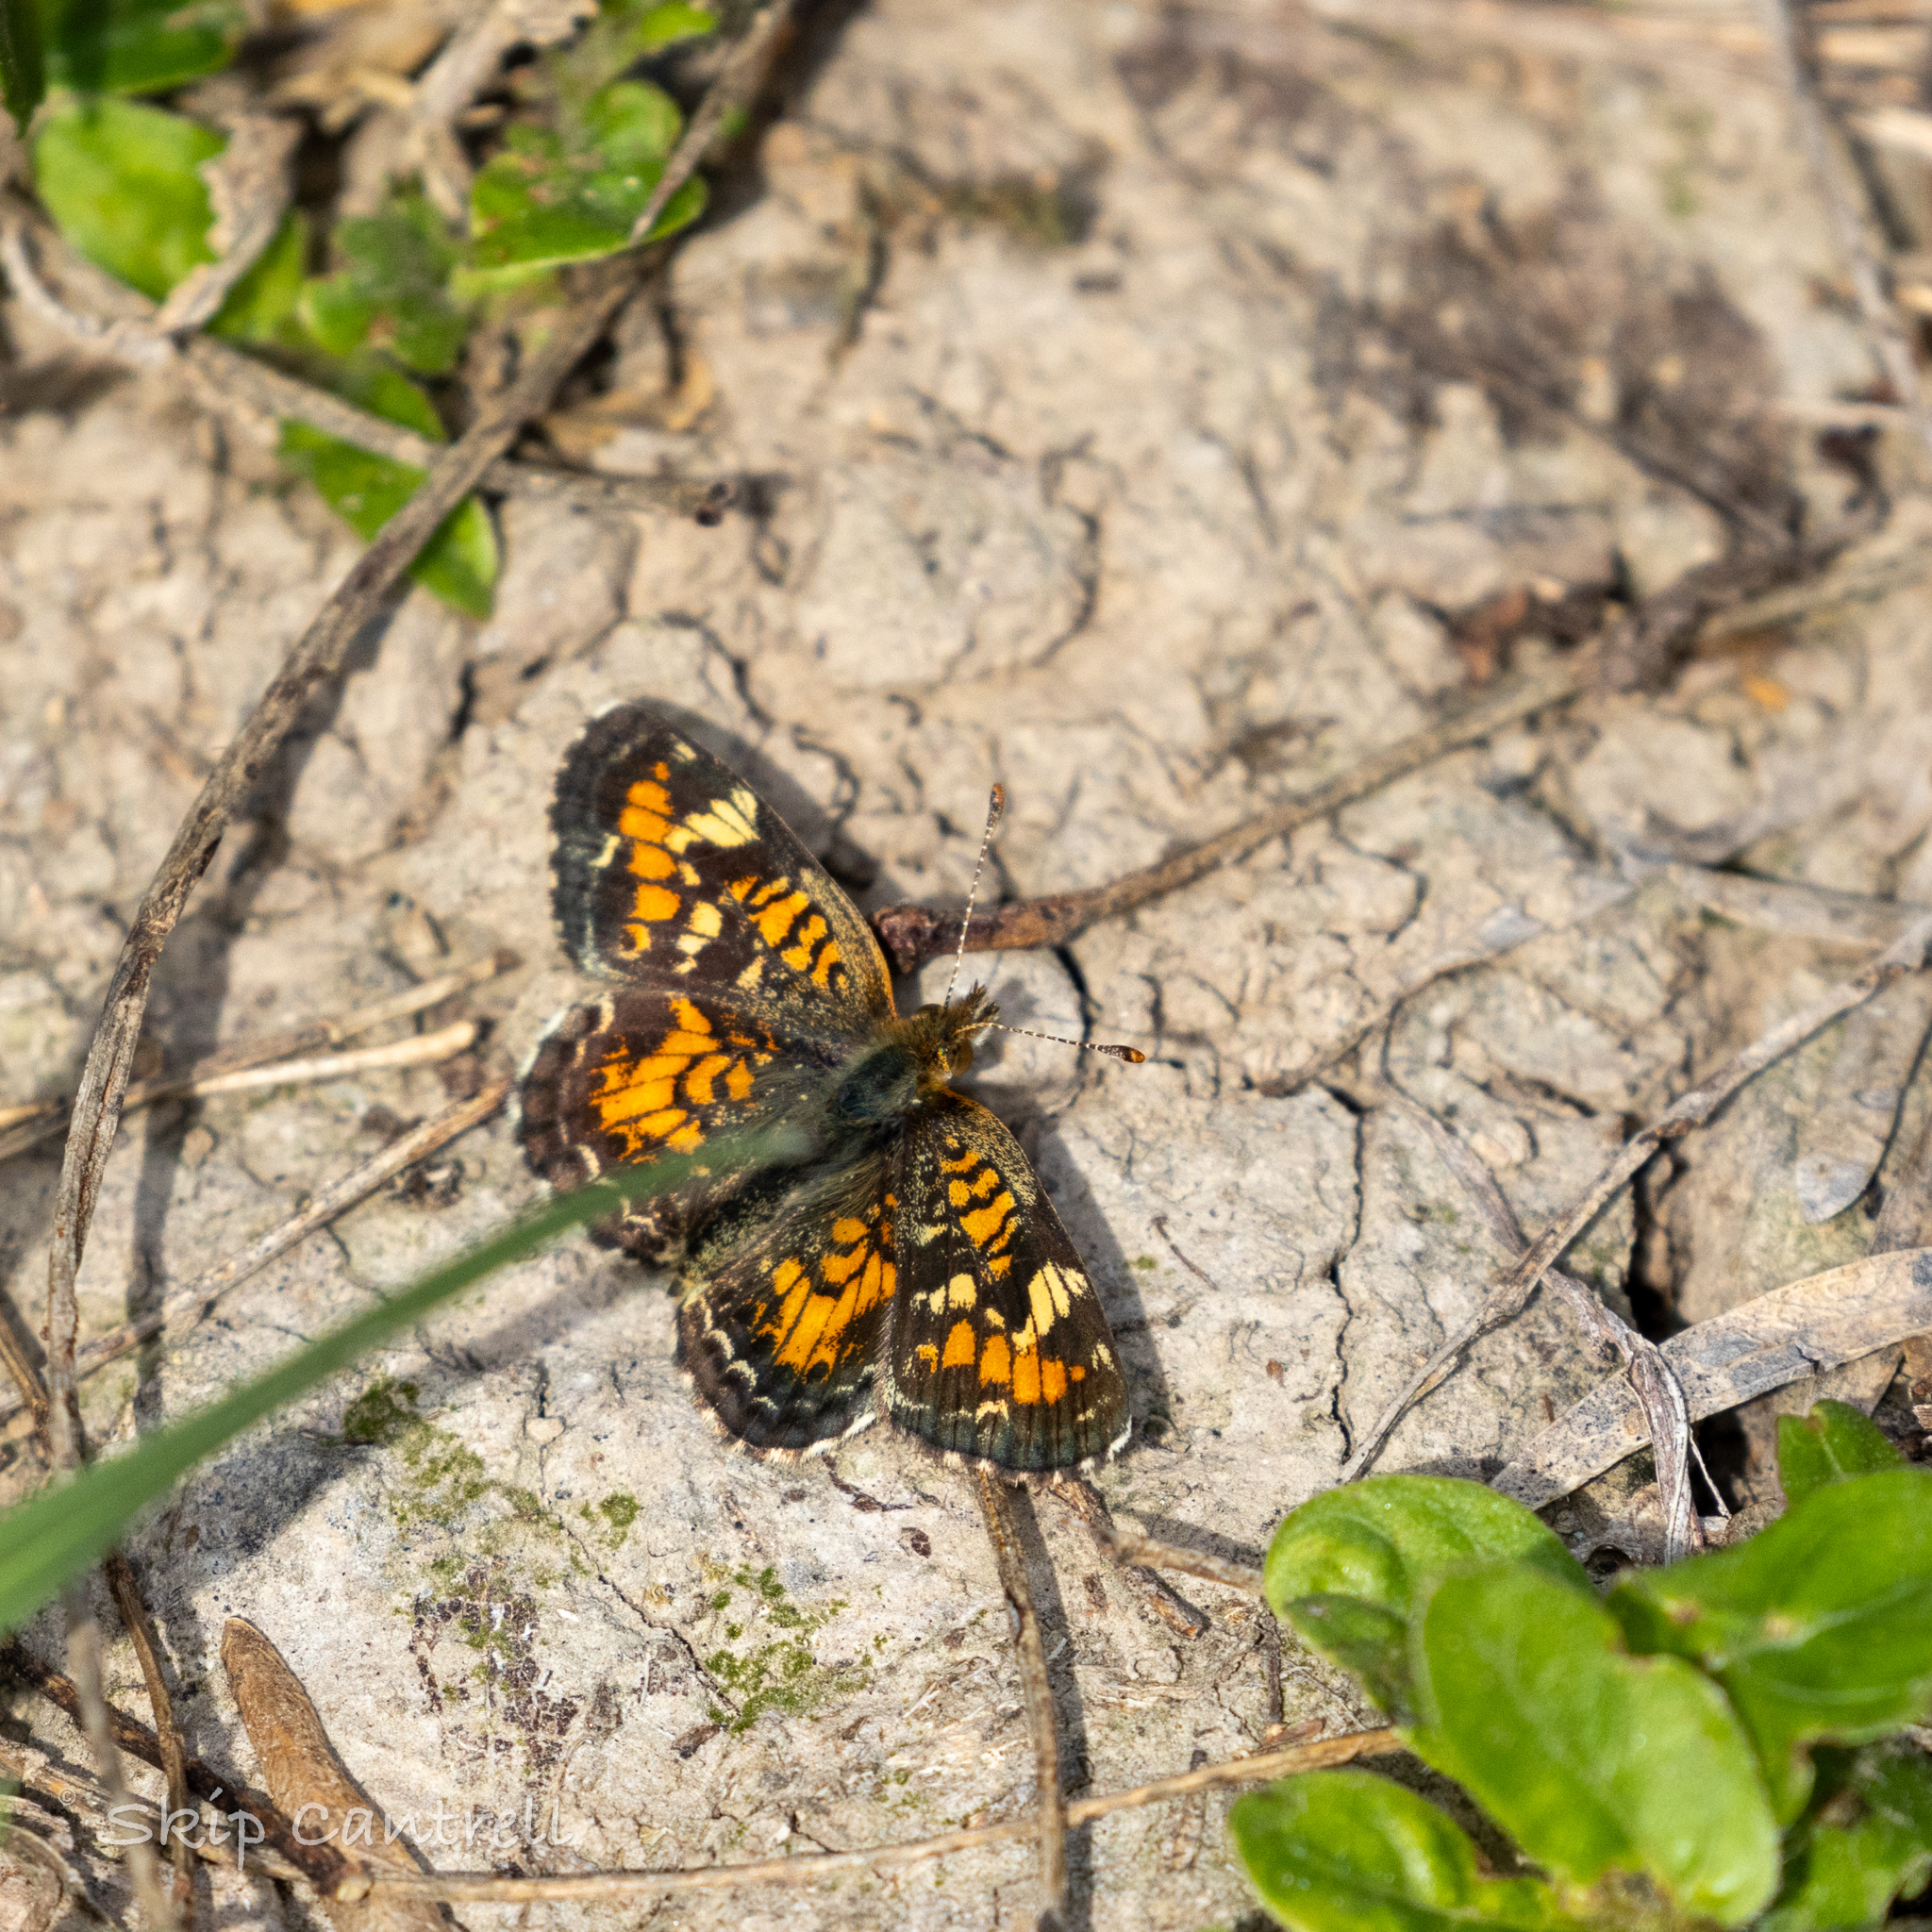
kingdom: Animalia
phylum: Arthropoda
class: Insecta
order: Lepidoptera
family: Nymphalidae
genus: Phyciodes
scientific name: Phyciodes phaon
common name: Phaon crescent
